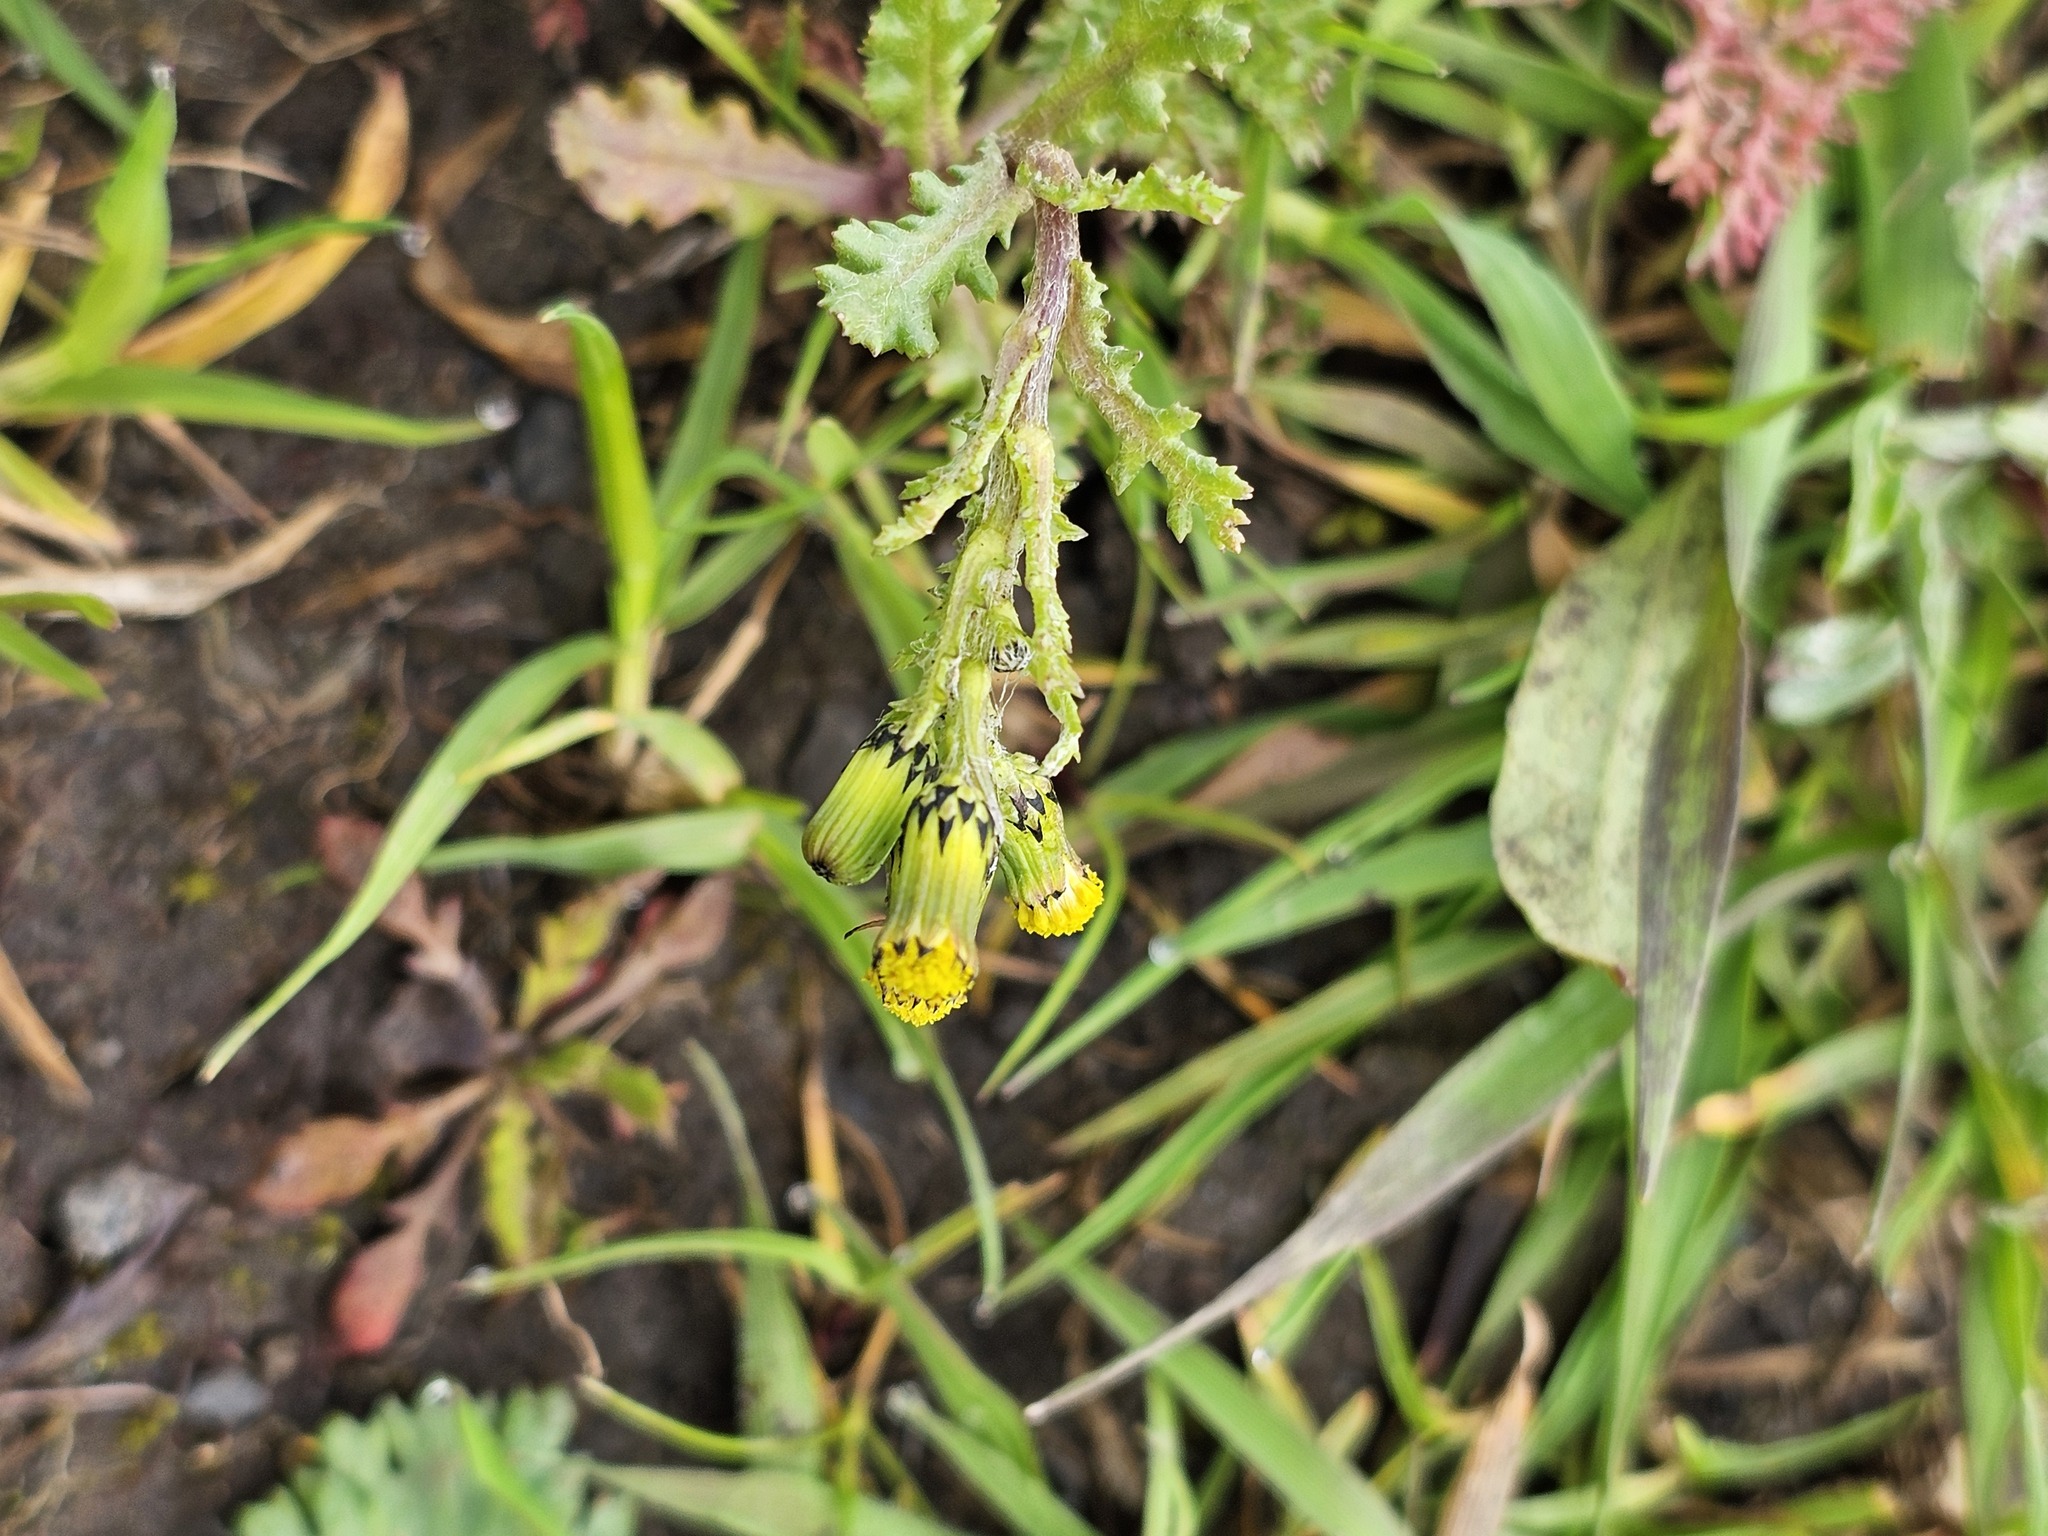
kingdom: Plantae
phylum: Tracheophyta
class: Magnoliopsida
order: Asterales
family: Asteraceae
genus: Senecio
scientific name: Senecio vulgaris
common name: Old-man-in-the-spring
